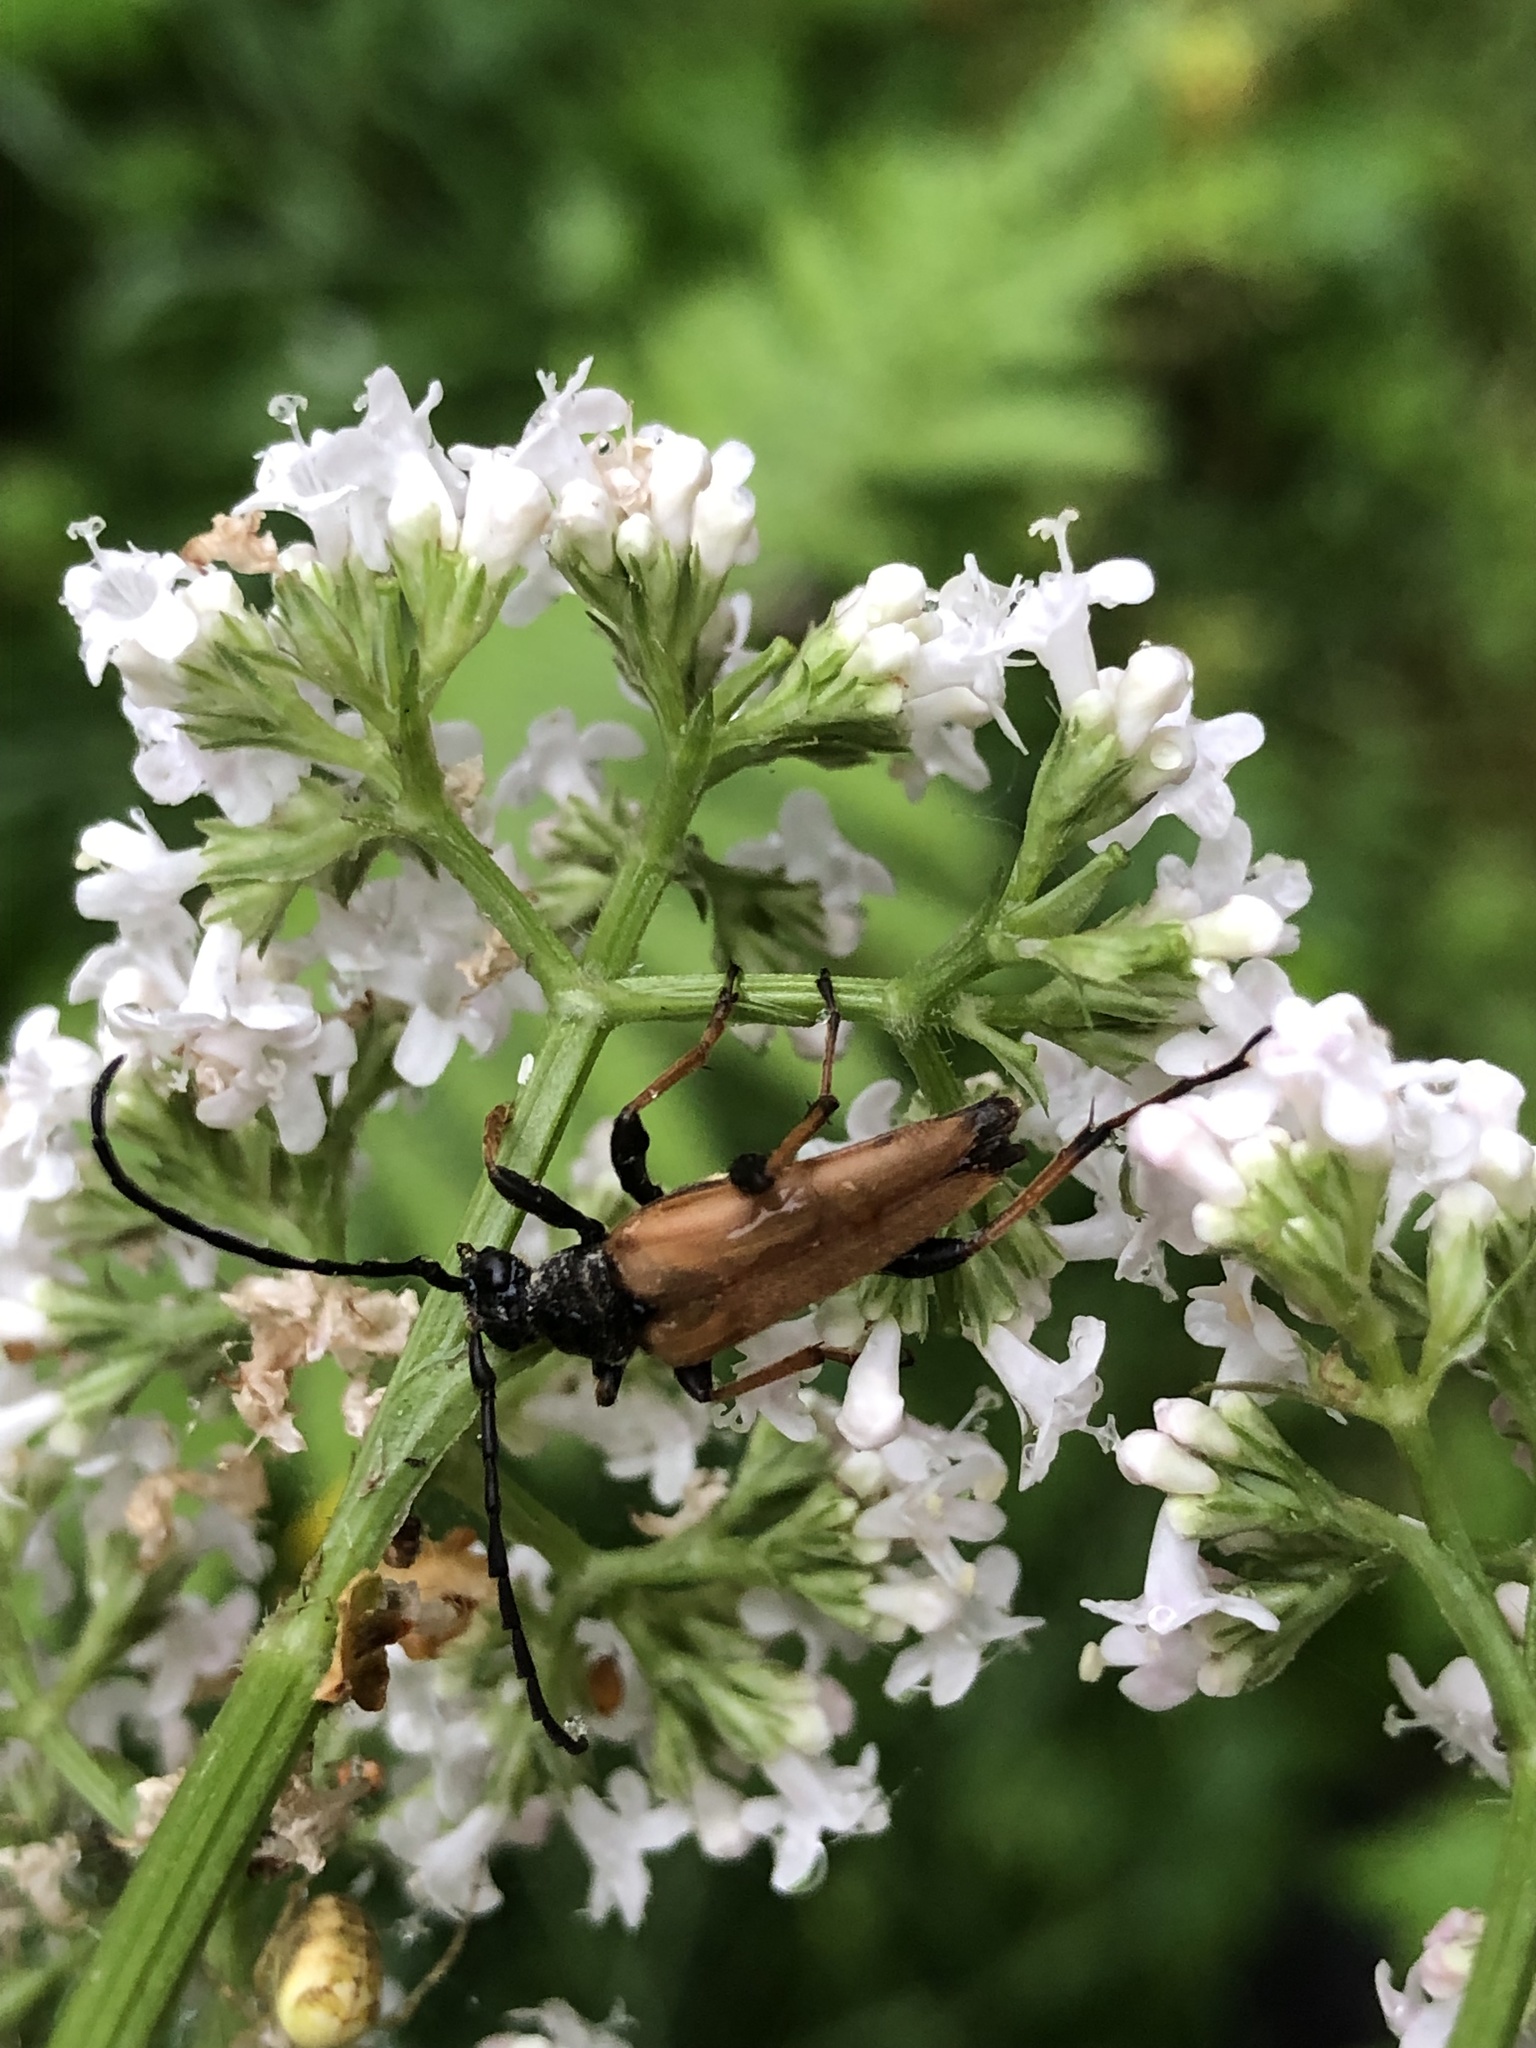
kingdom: Animalia
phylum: Arthropoda
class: Insecta
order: Coleoptera
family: Cerambycidae
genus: Stictoleptura
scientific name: Stictoleptura rubra
